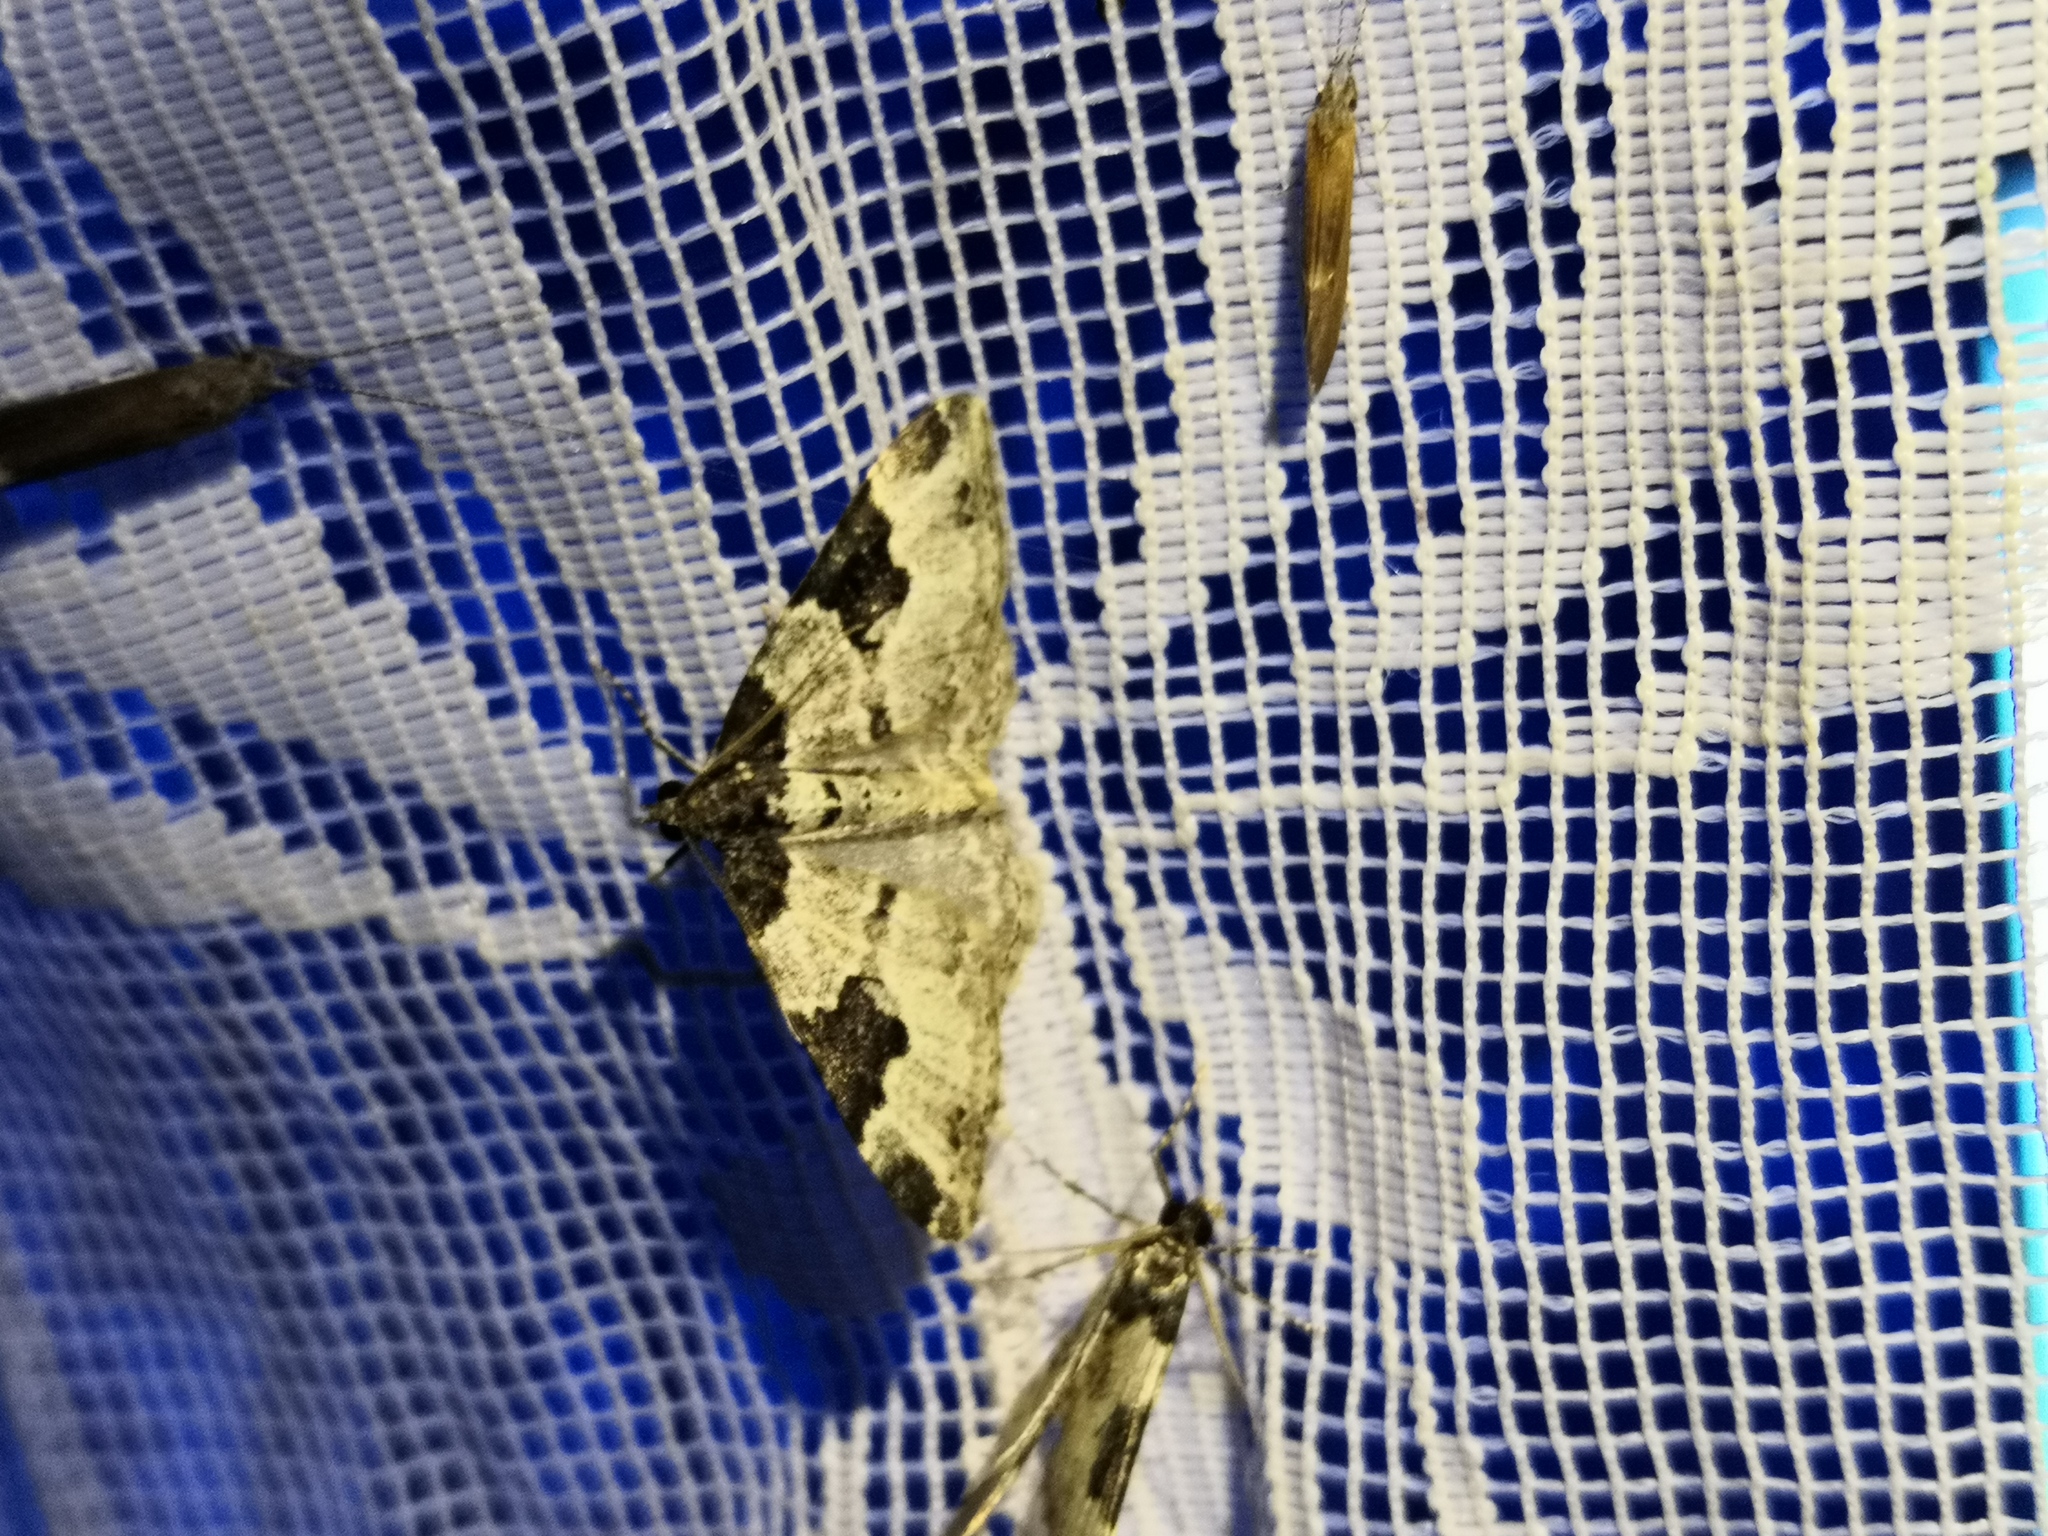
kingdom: Animalia
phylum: Arthropoda
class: Insecta
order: Lepidoptera
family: Geometridae
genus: Xanthorhoe
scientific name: Xanthorhoe fluctuata
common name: Garden carpet
